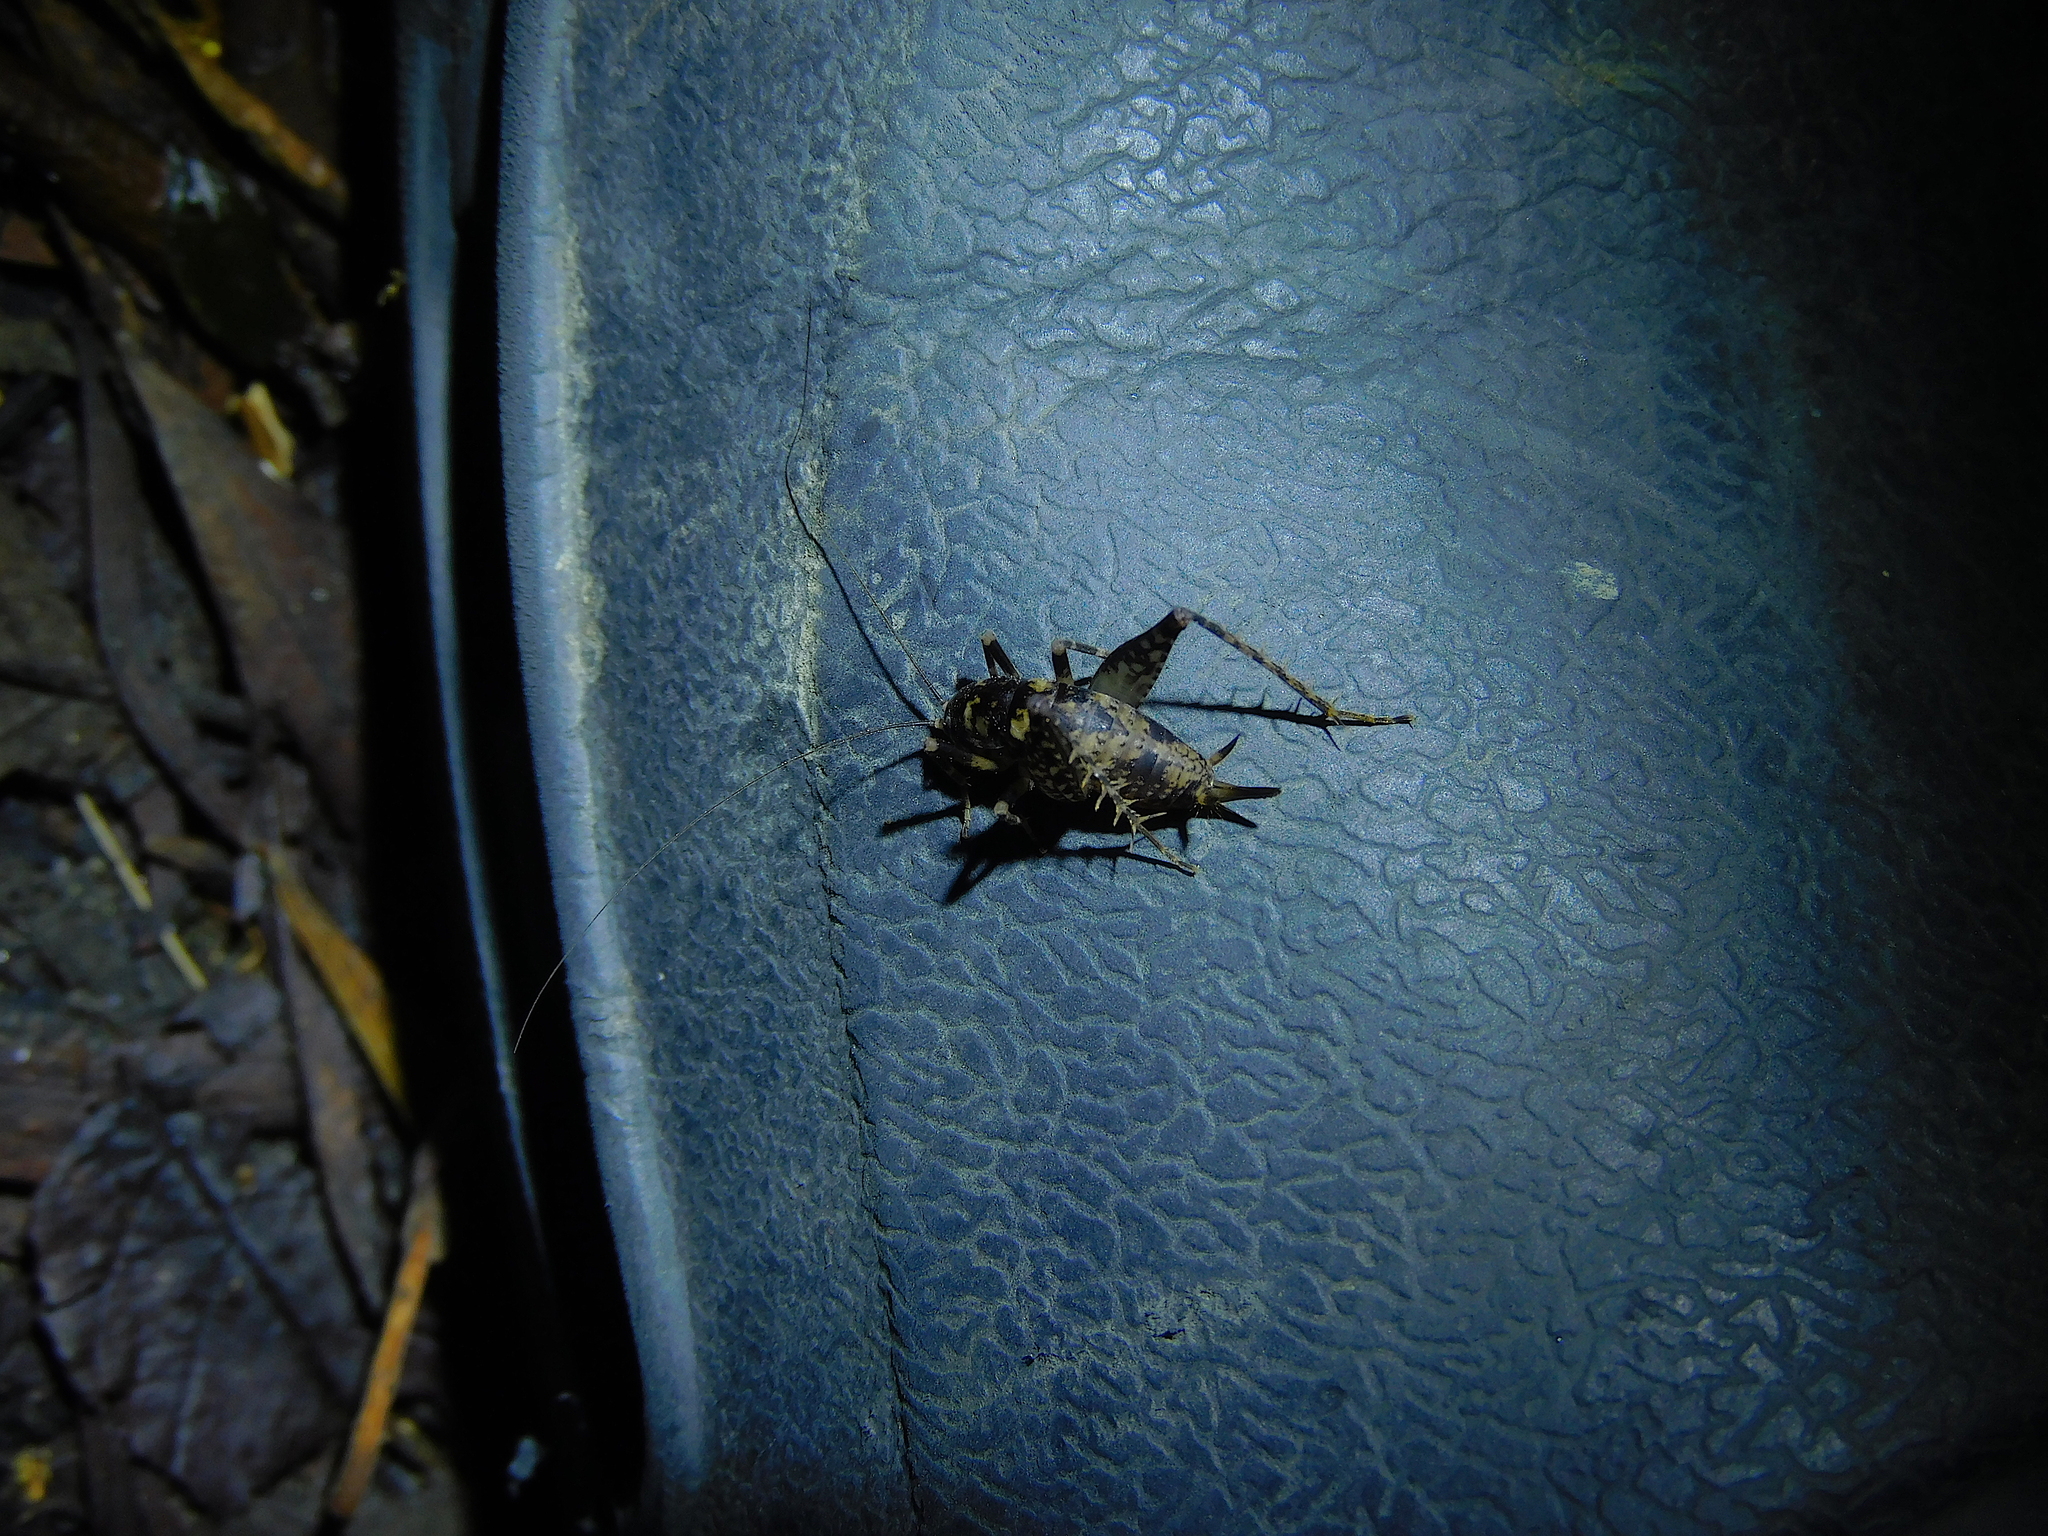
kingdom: Animalia
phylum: Arthropoda
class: Insecta
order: Orthoptera
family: Rhaphidophoridae
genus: Parvotettix
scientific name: Parvotettix domesticus
